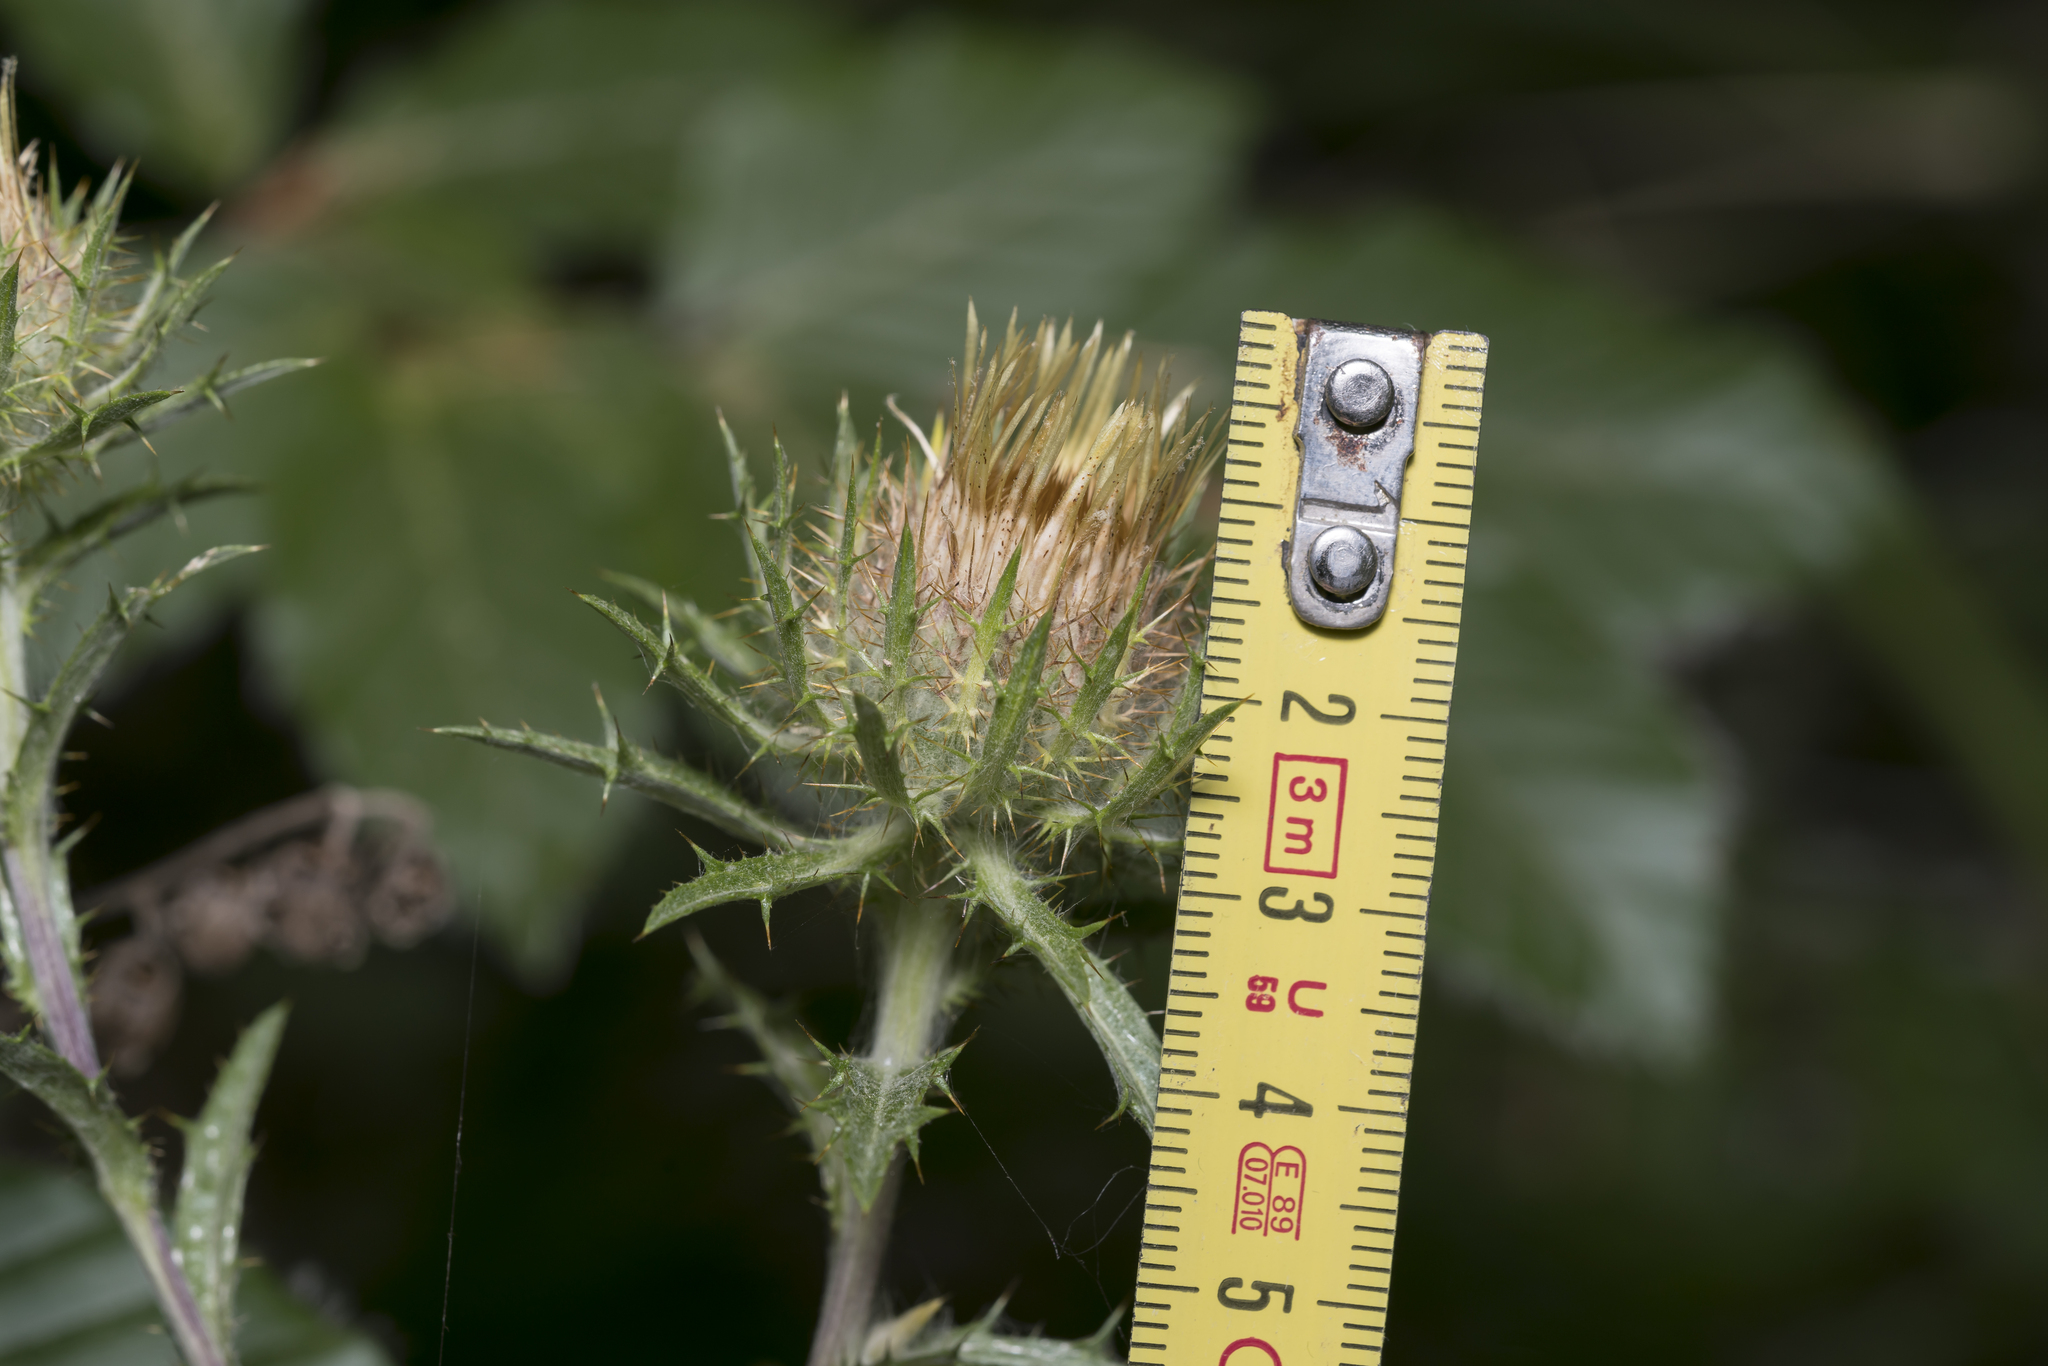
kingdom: Plantae
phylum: Tracheophyta
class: Magnoliopsida
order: Asterales
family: Asteraceae
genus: Carlina
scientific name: Carlina biebersteinii
